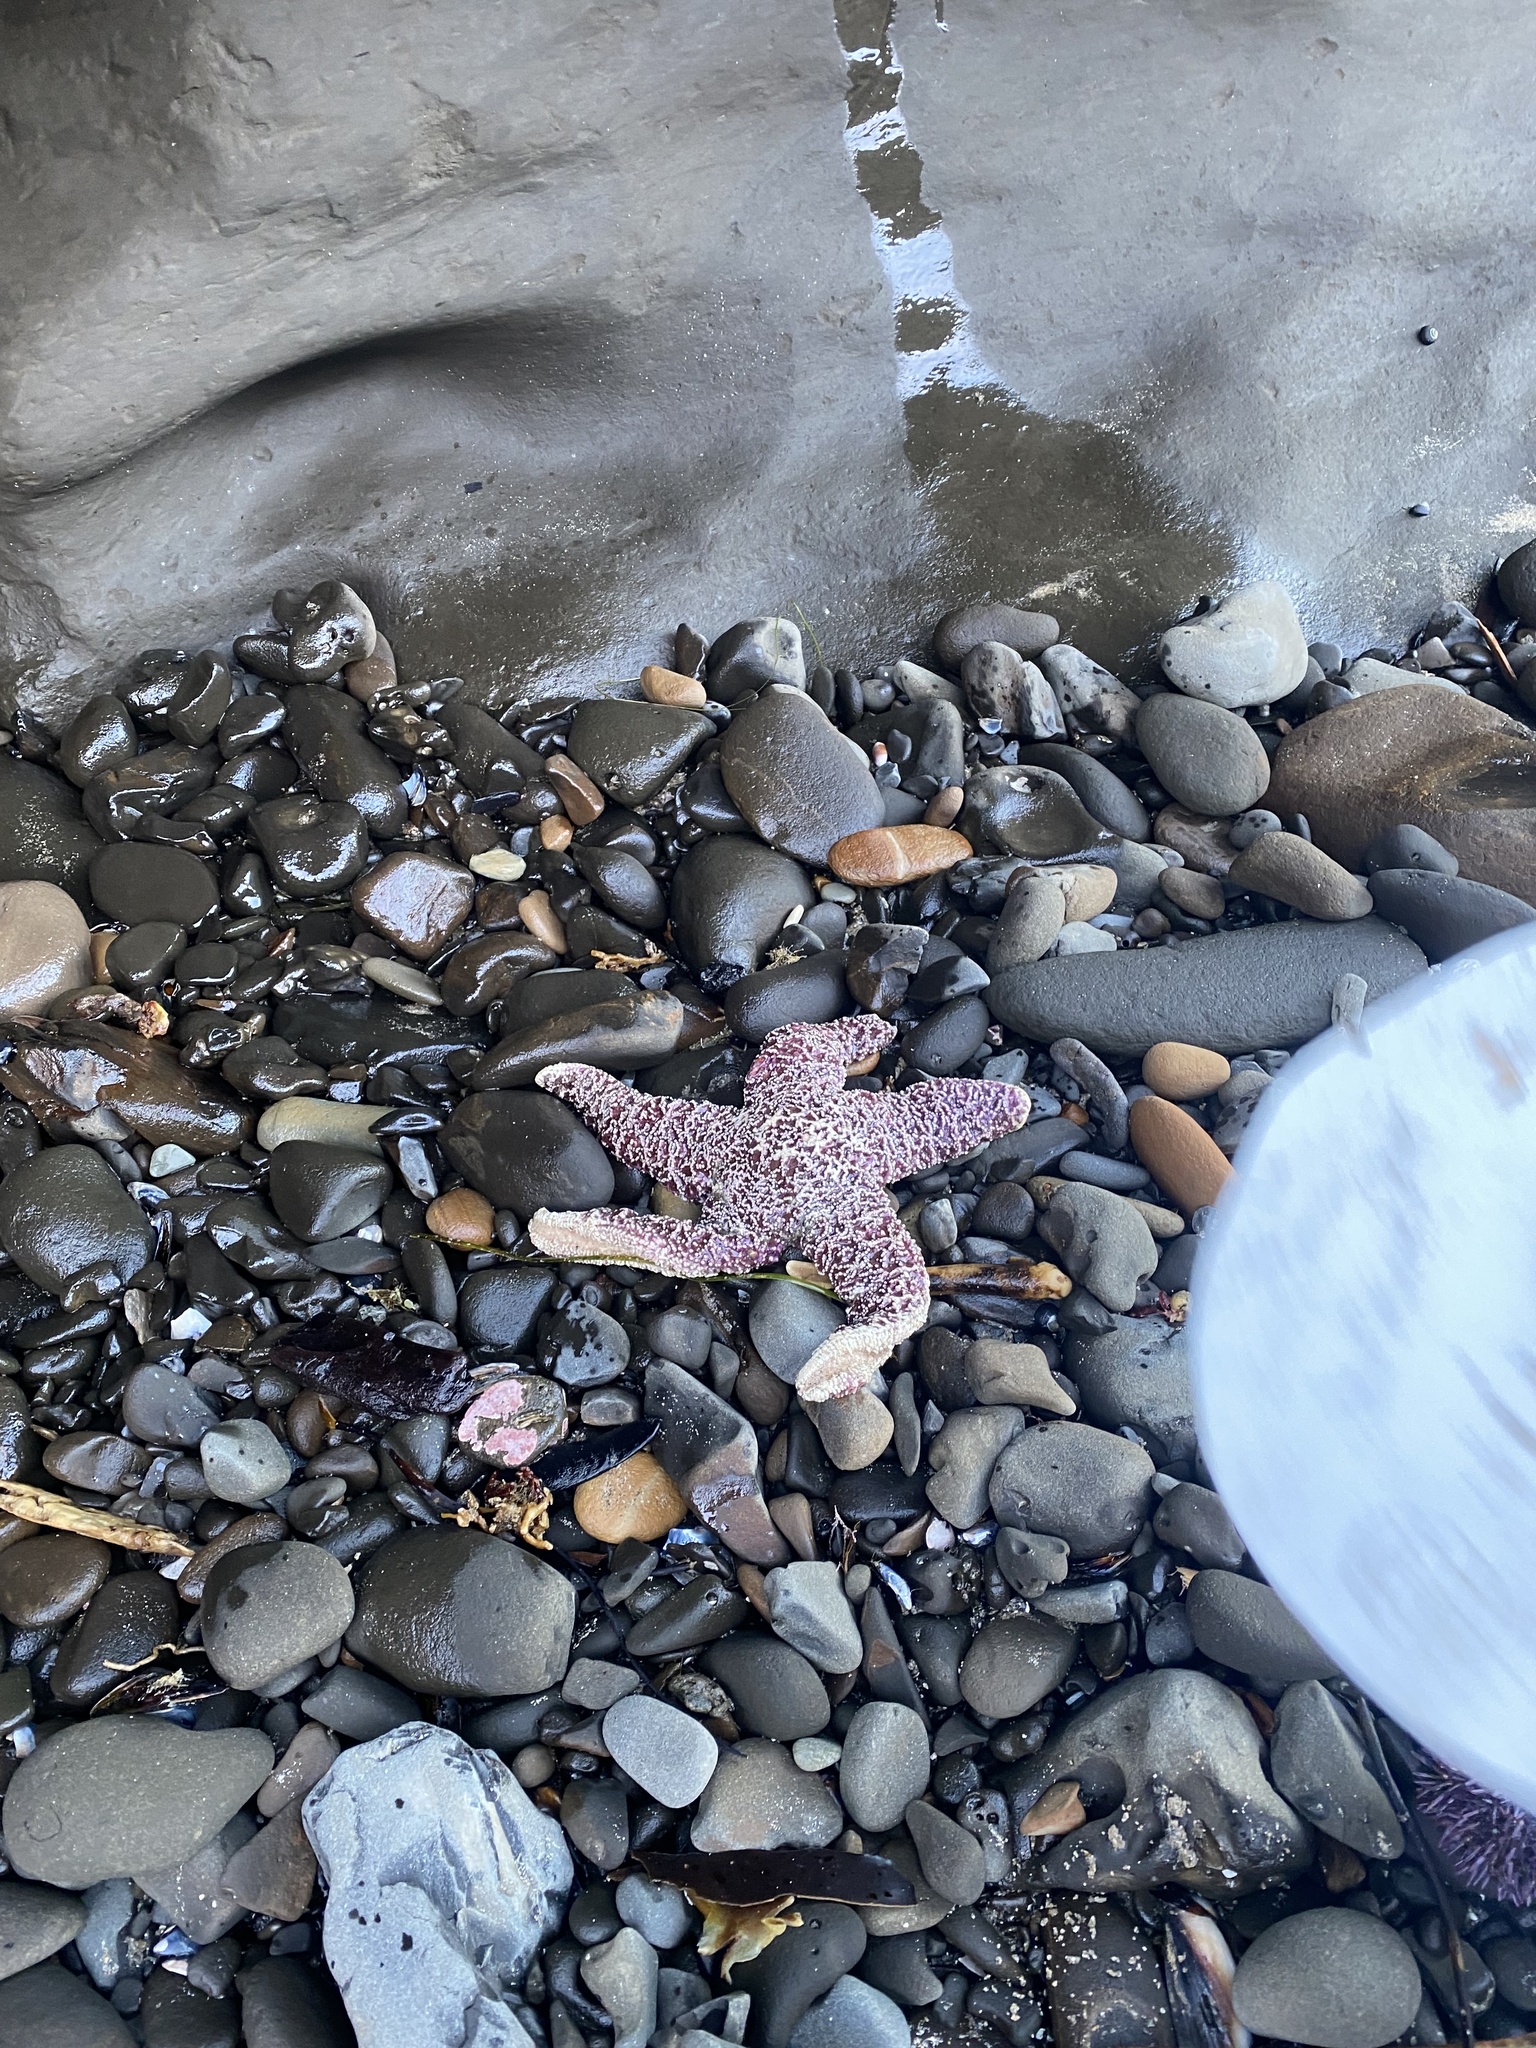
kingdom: Animalia
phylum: Echinodermata
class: Asteroidea
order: Forcipulatida
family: Asteriidae
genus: Pisaster
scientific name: Pisaster ochraceus
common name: Ochre stars
